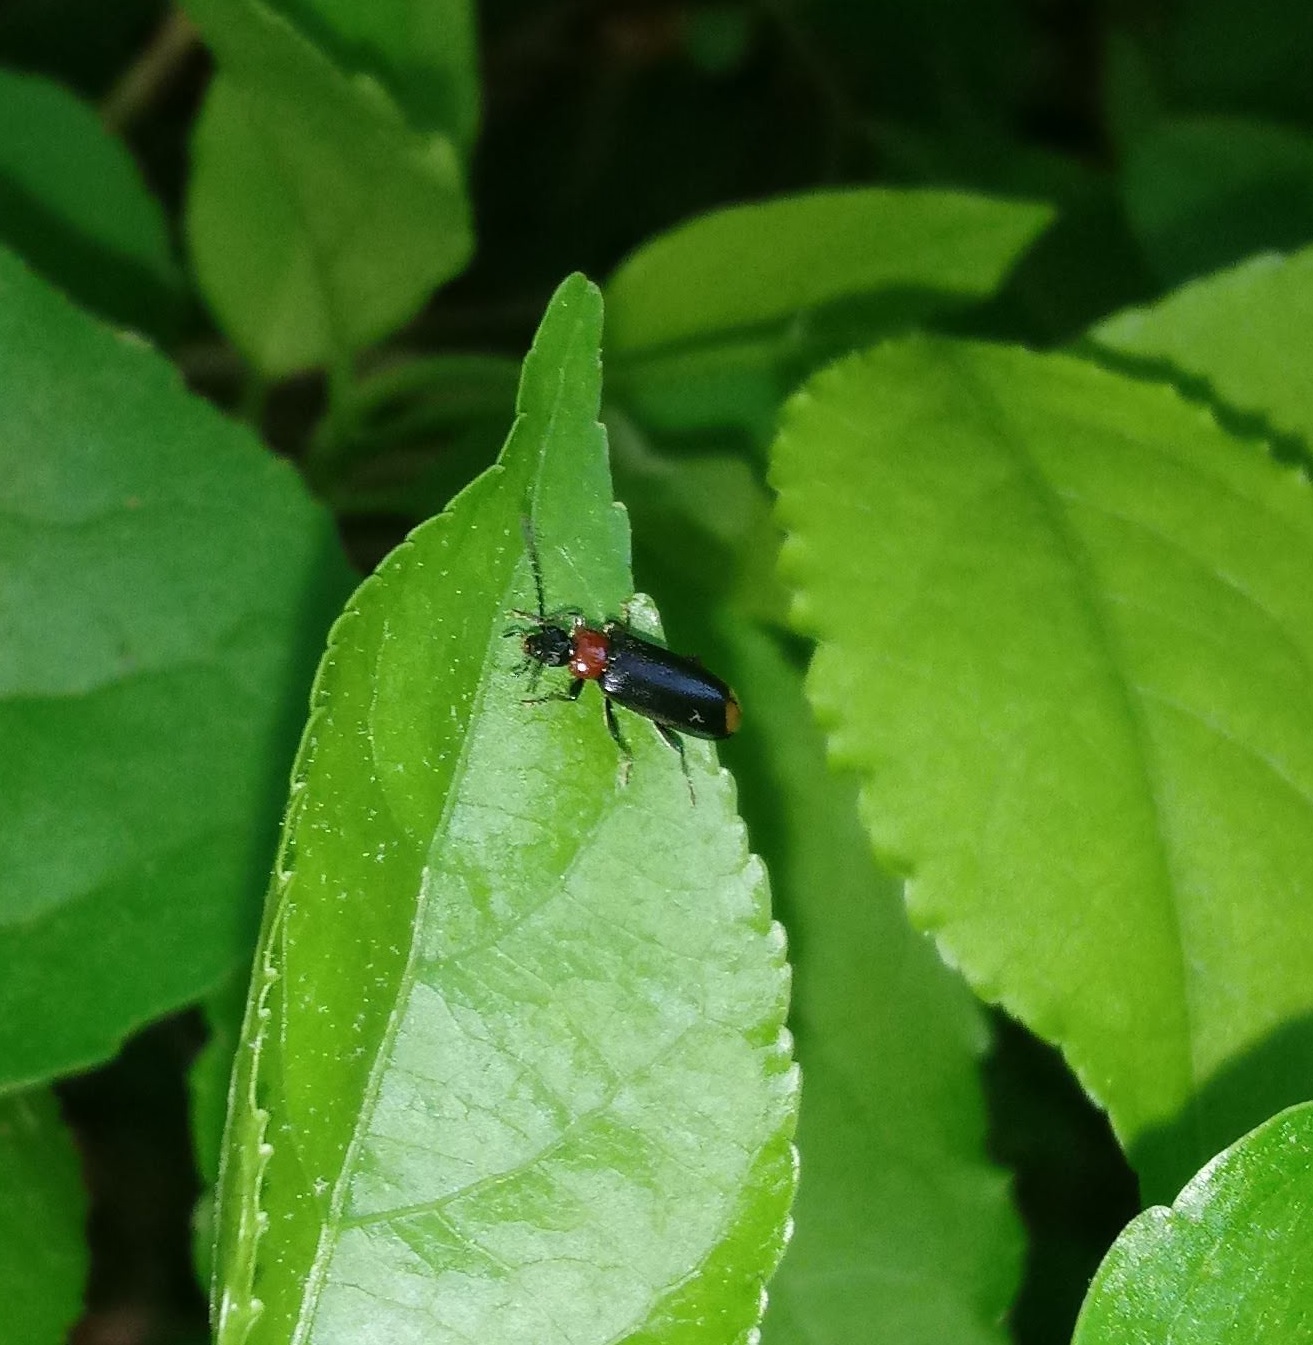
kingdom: Animalia
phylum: Arthropoda
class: Insecta
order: Coleoptera
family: Pyrochroidae
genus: Pedilus
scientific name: Pedilus terminalis
